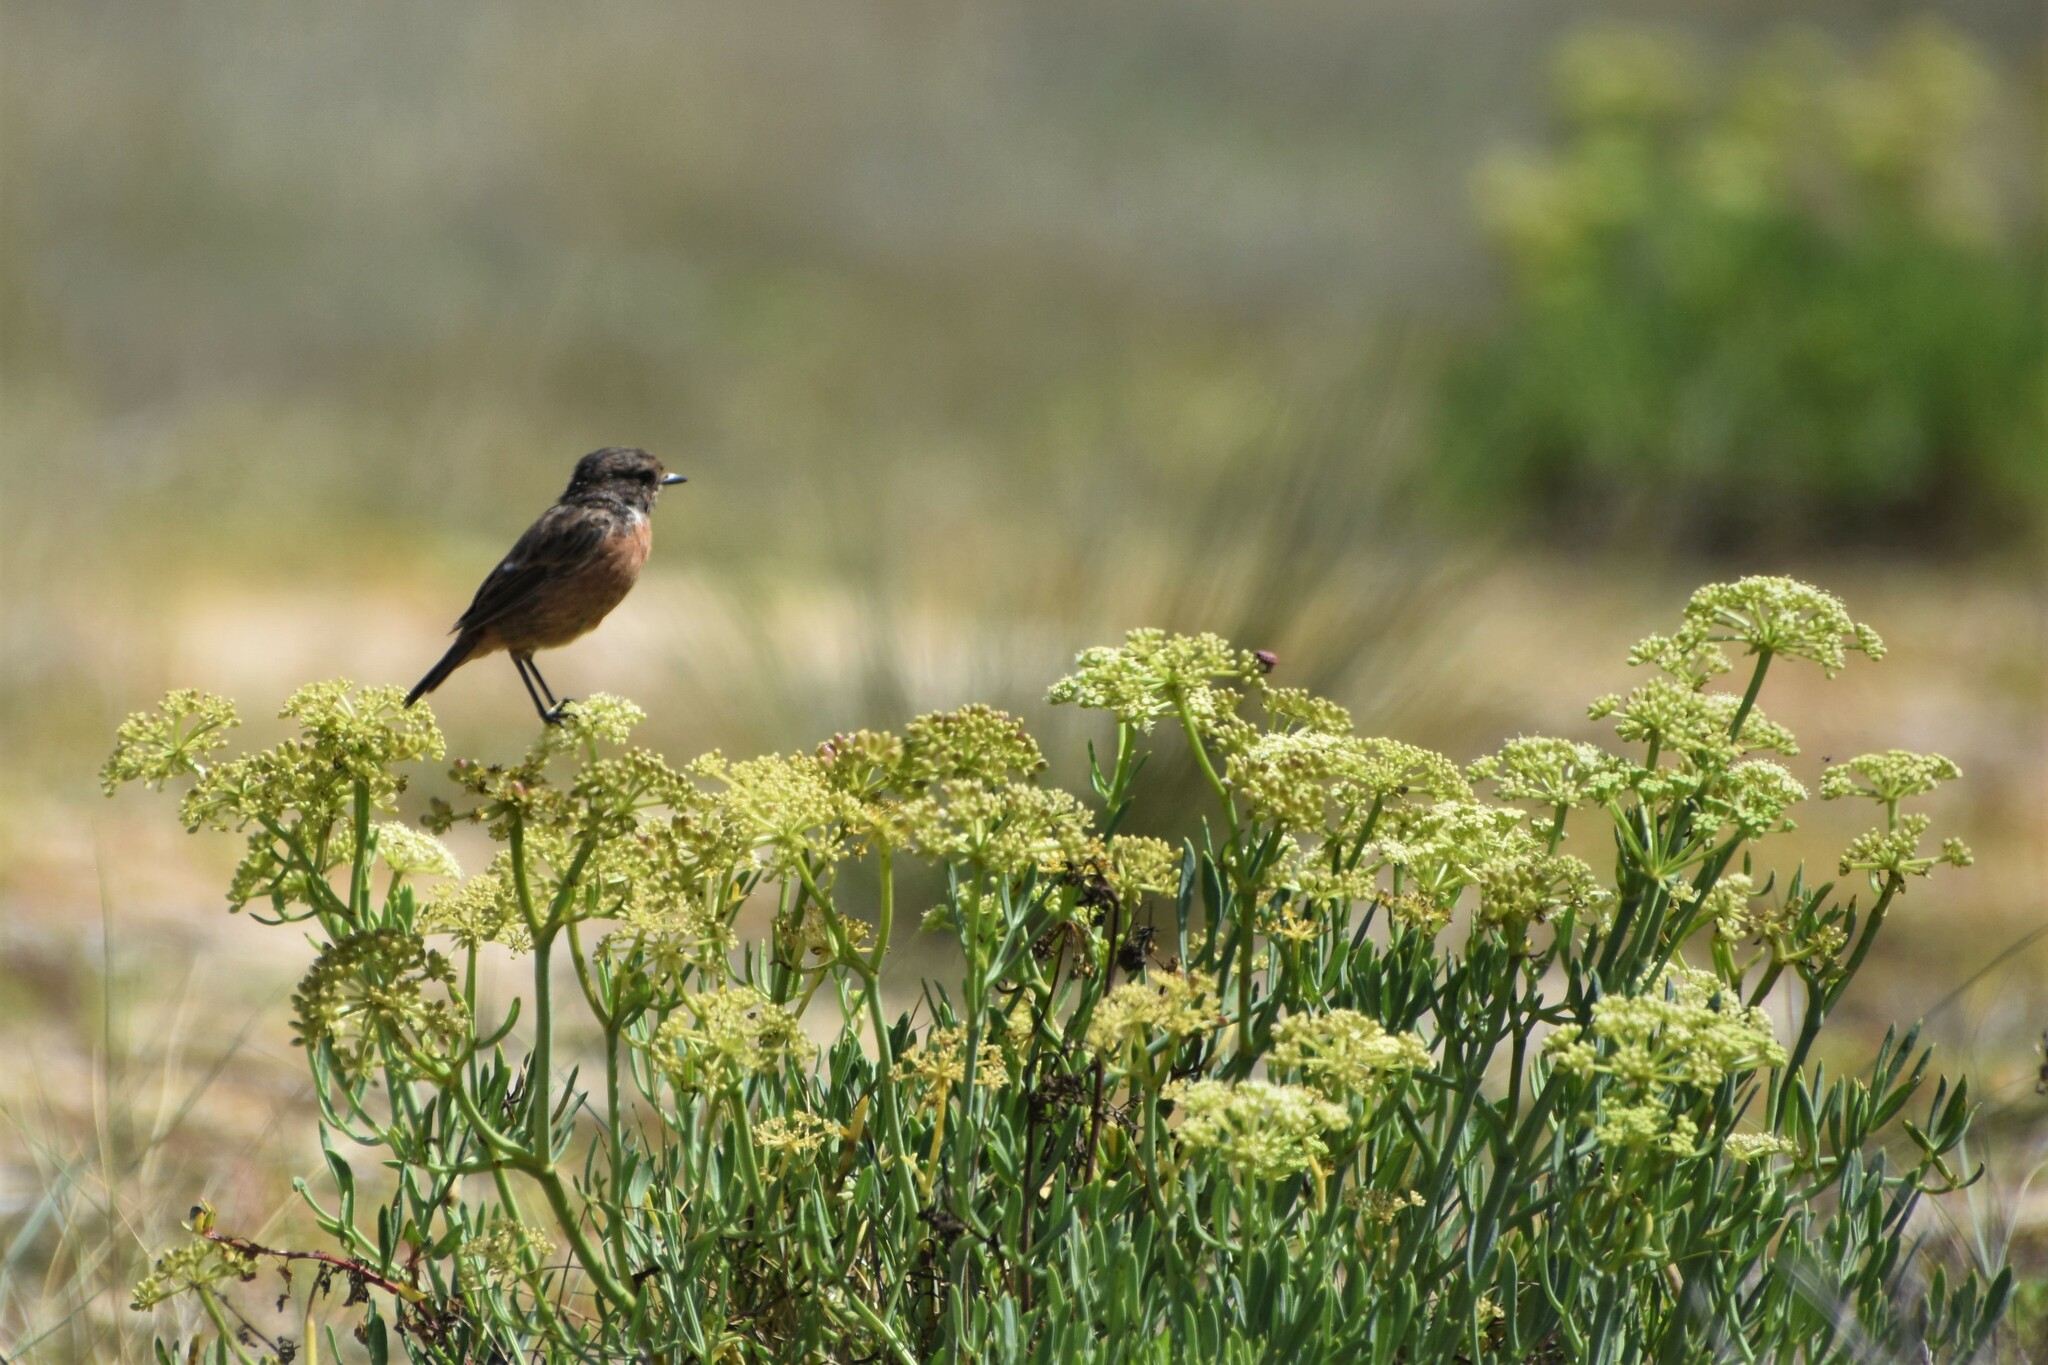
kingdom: Animalia
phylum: Chordata
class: Aves
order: Passeriformes
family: Muscicapidae
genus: Saxicola
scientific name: Saxicola rubicola
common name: European stonechat
